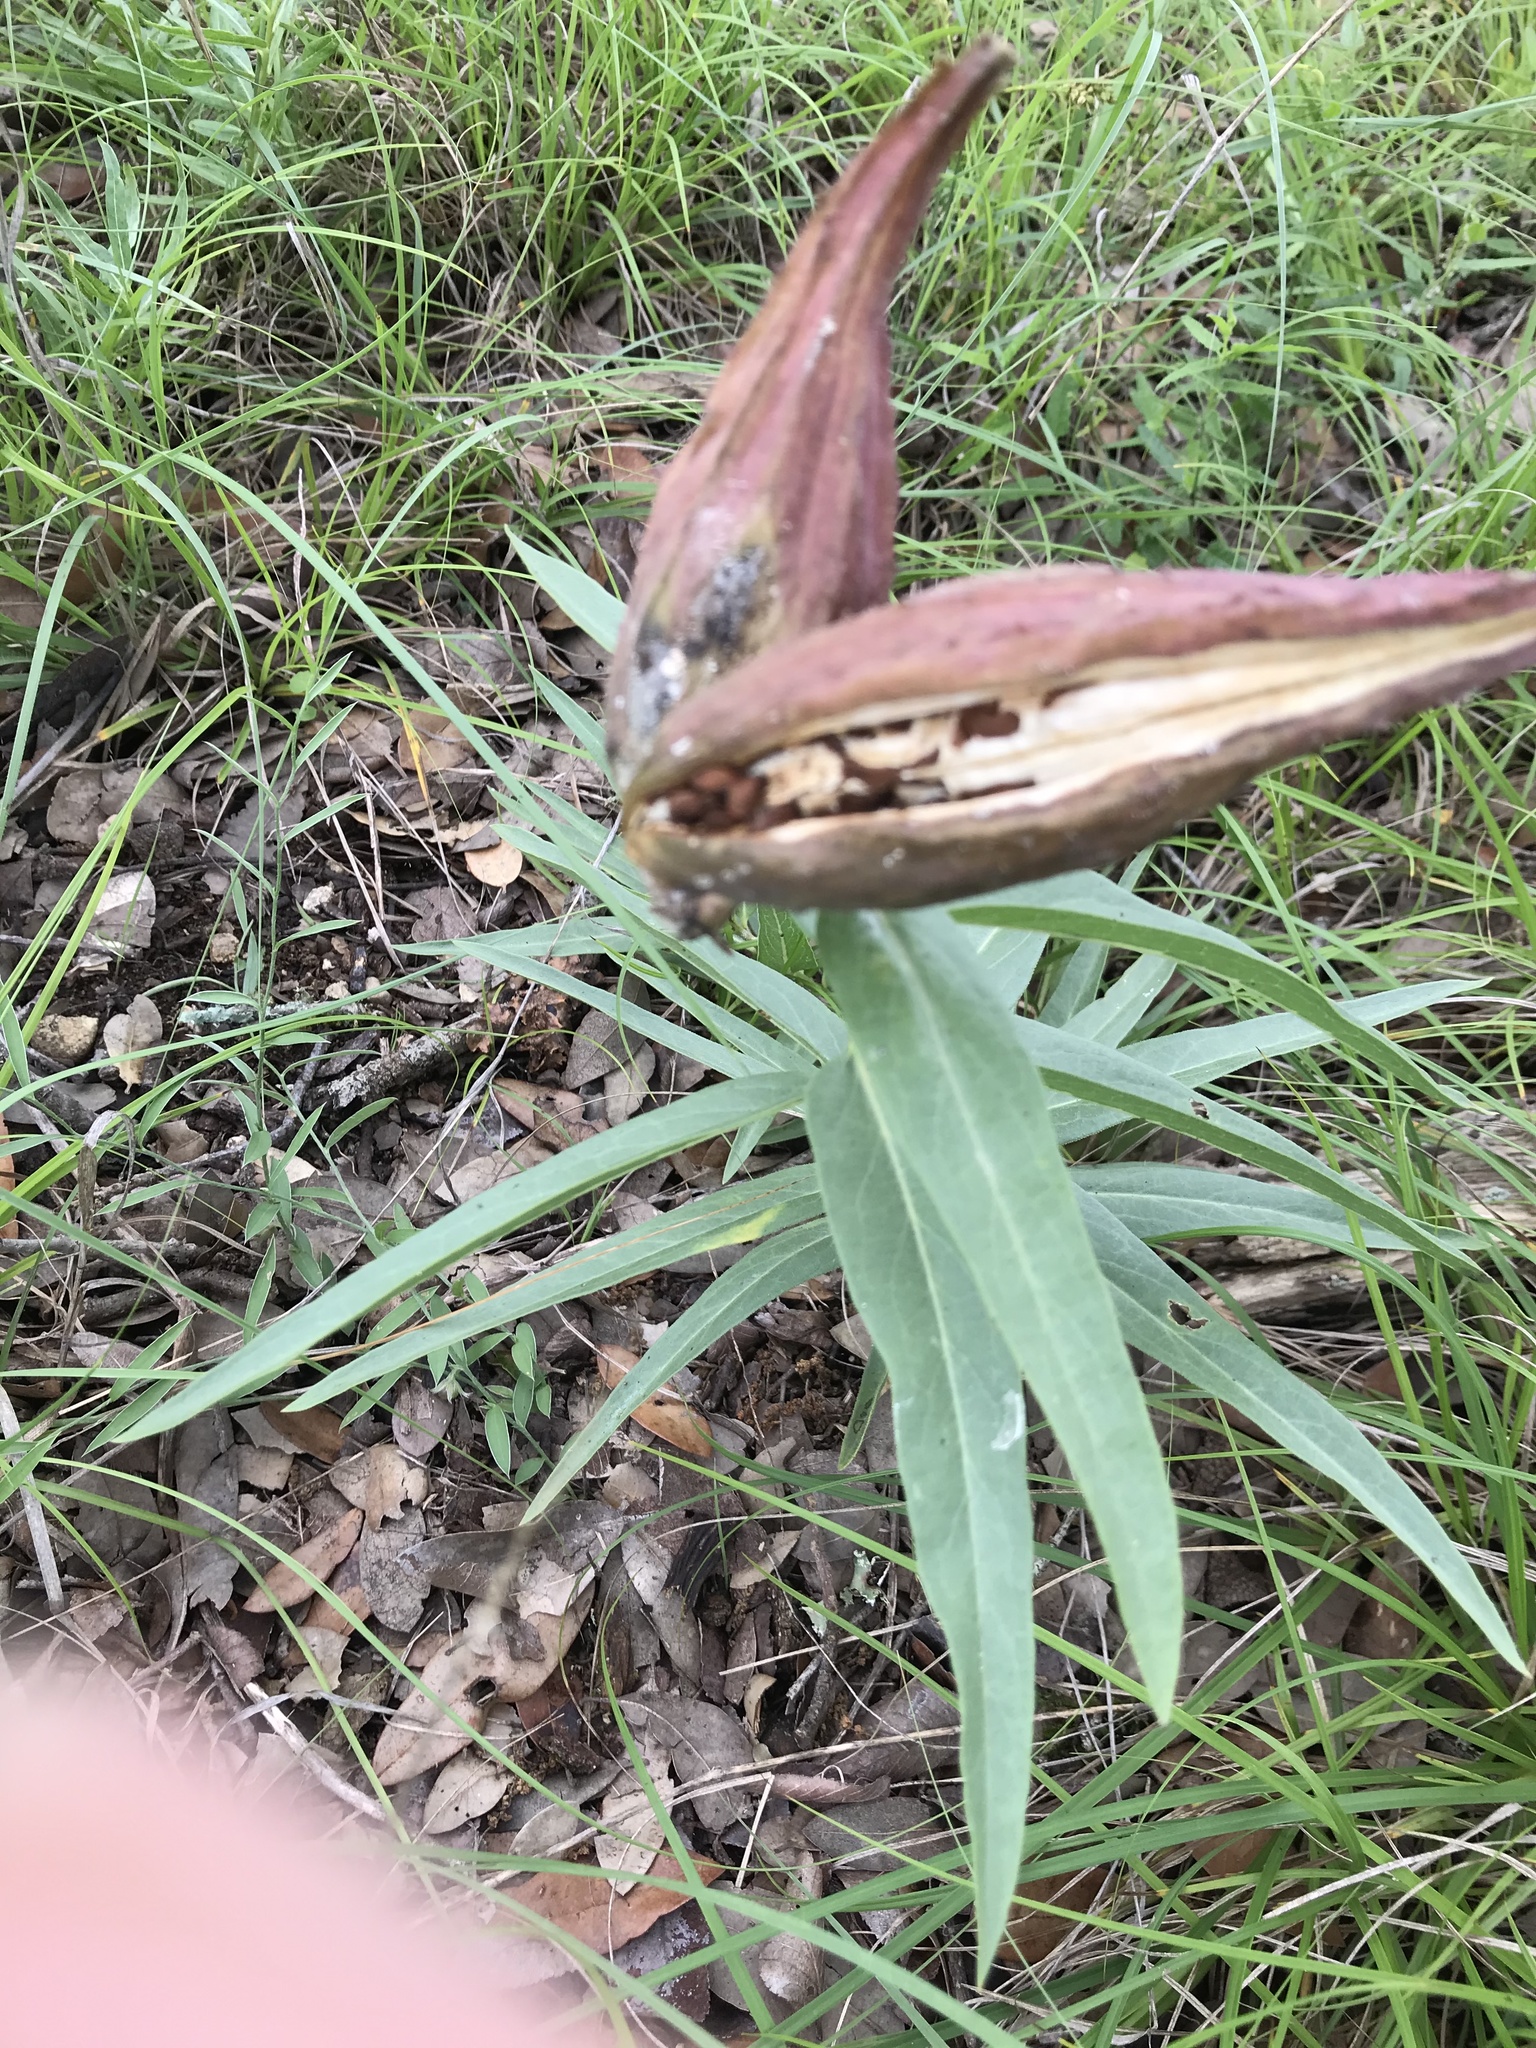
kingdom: Plantae
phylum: Tracheophyta
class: Magnoliopsida
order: Gentianales
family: Apocynaceae
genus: Asclepias
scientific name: Asclepias asperula
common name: Antelope horns
